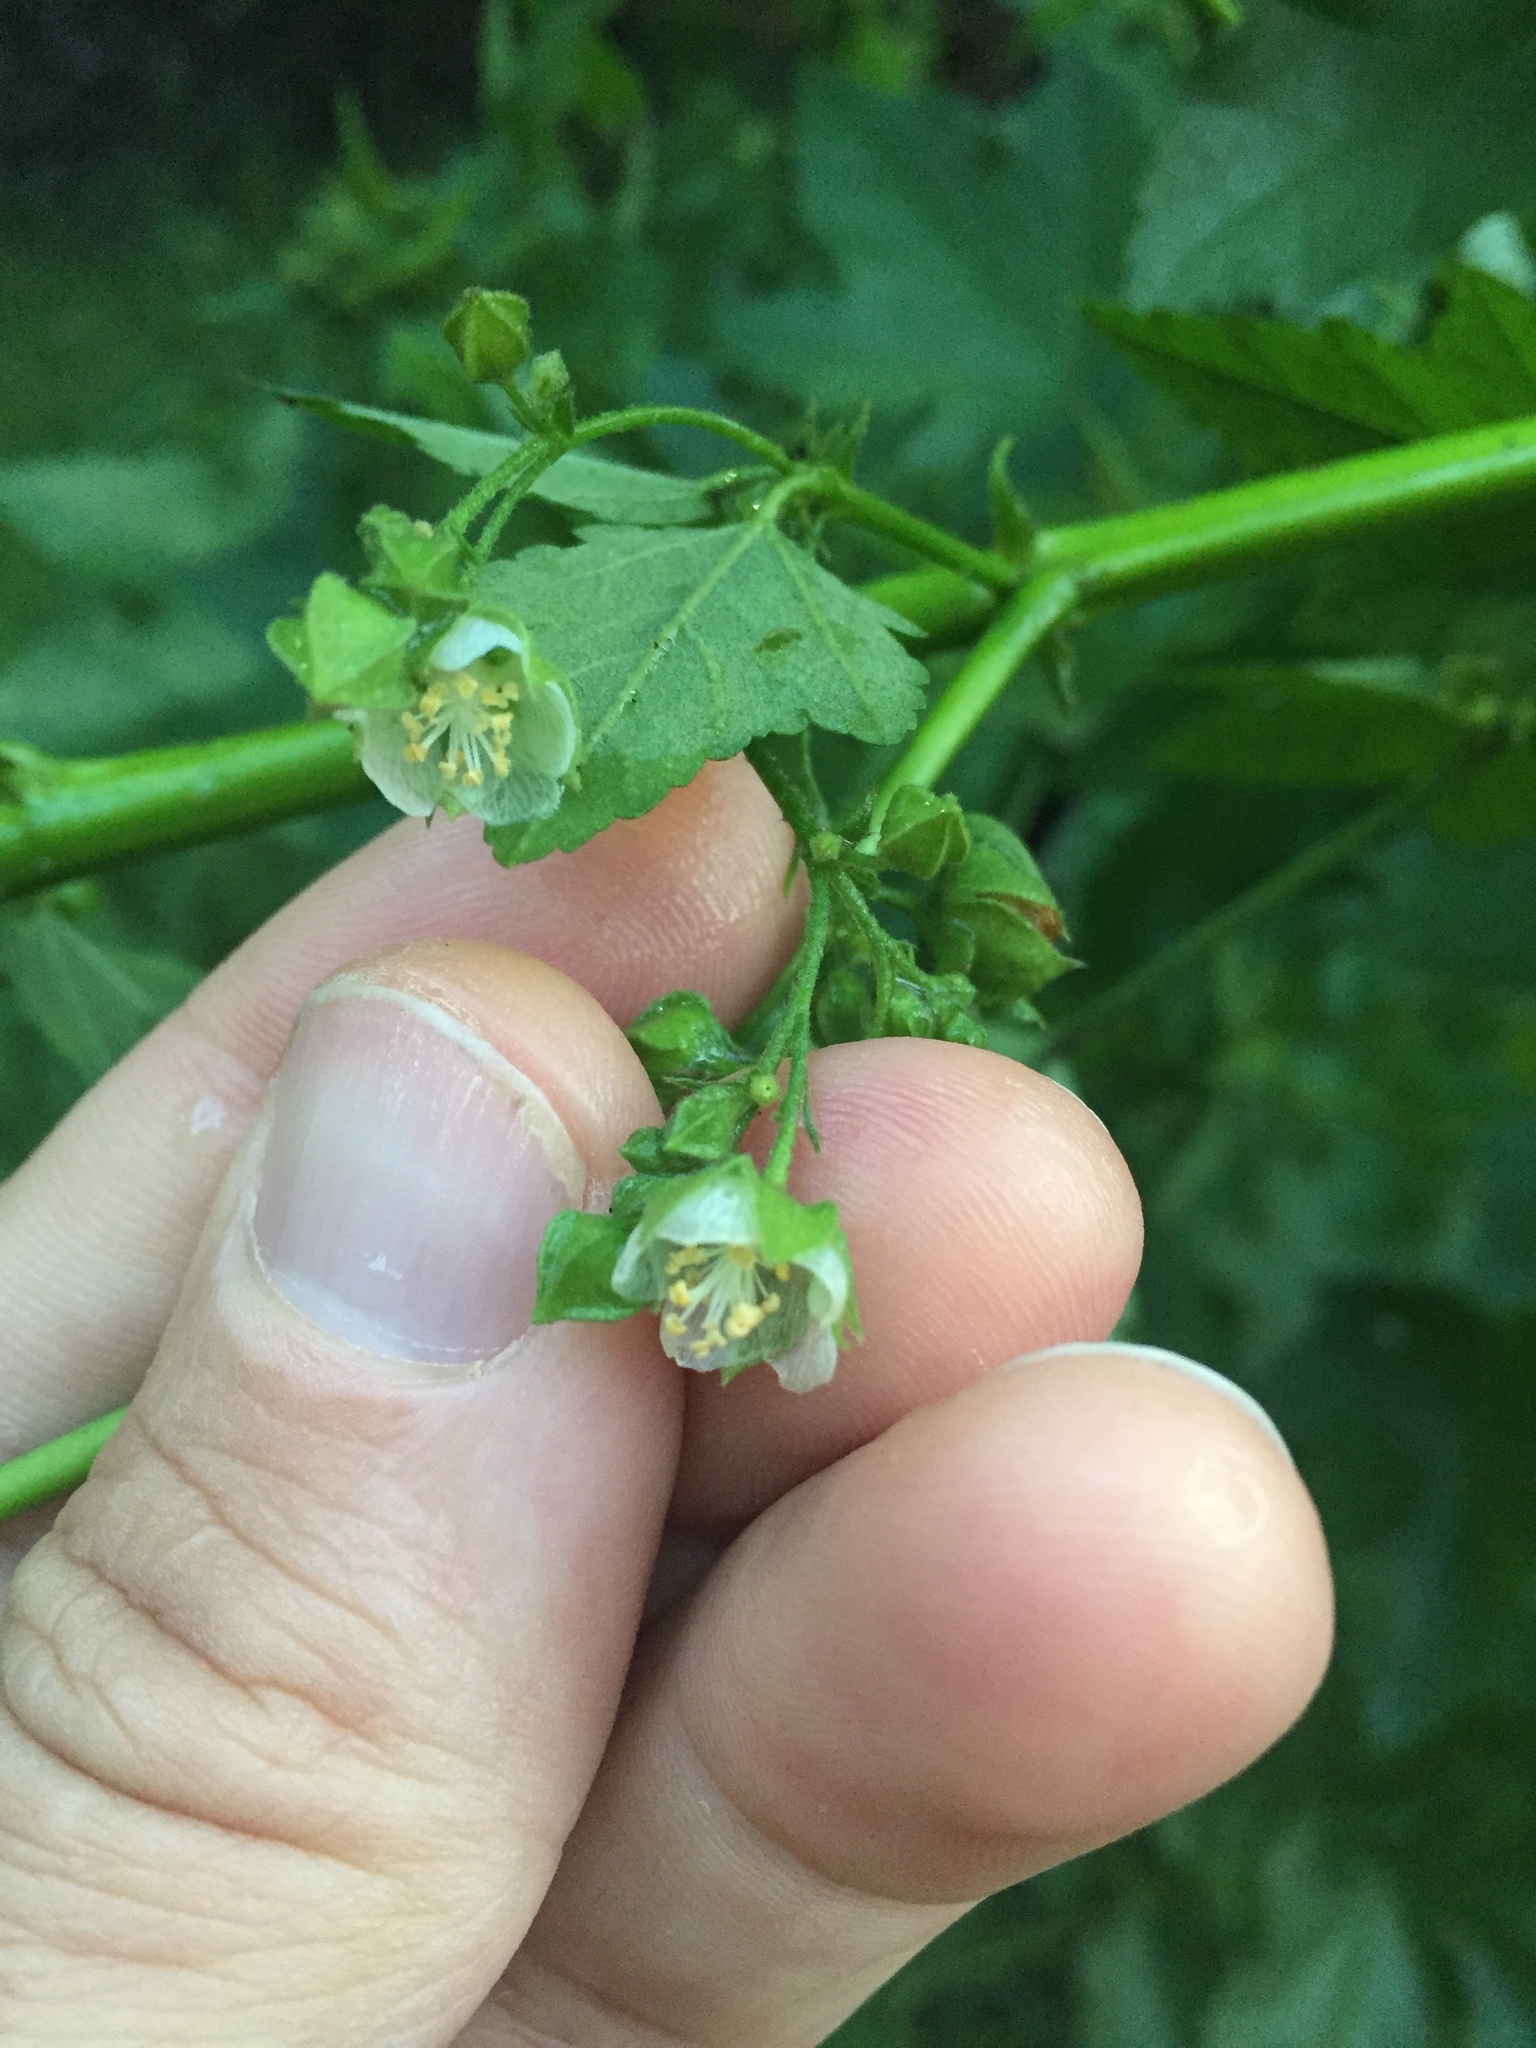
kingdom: Plantae
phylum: Tracheophyta
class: Magnoliopsida
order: Malvales
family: Malvaceae
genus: Kearnemalvastrum
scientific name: Kearnemalvastrum lacteum
